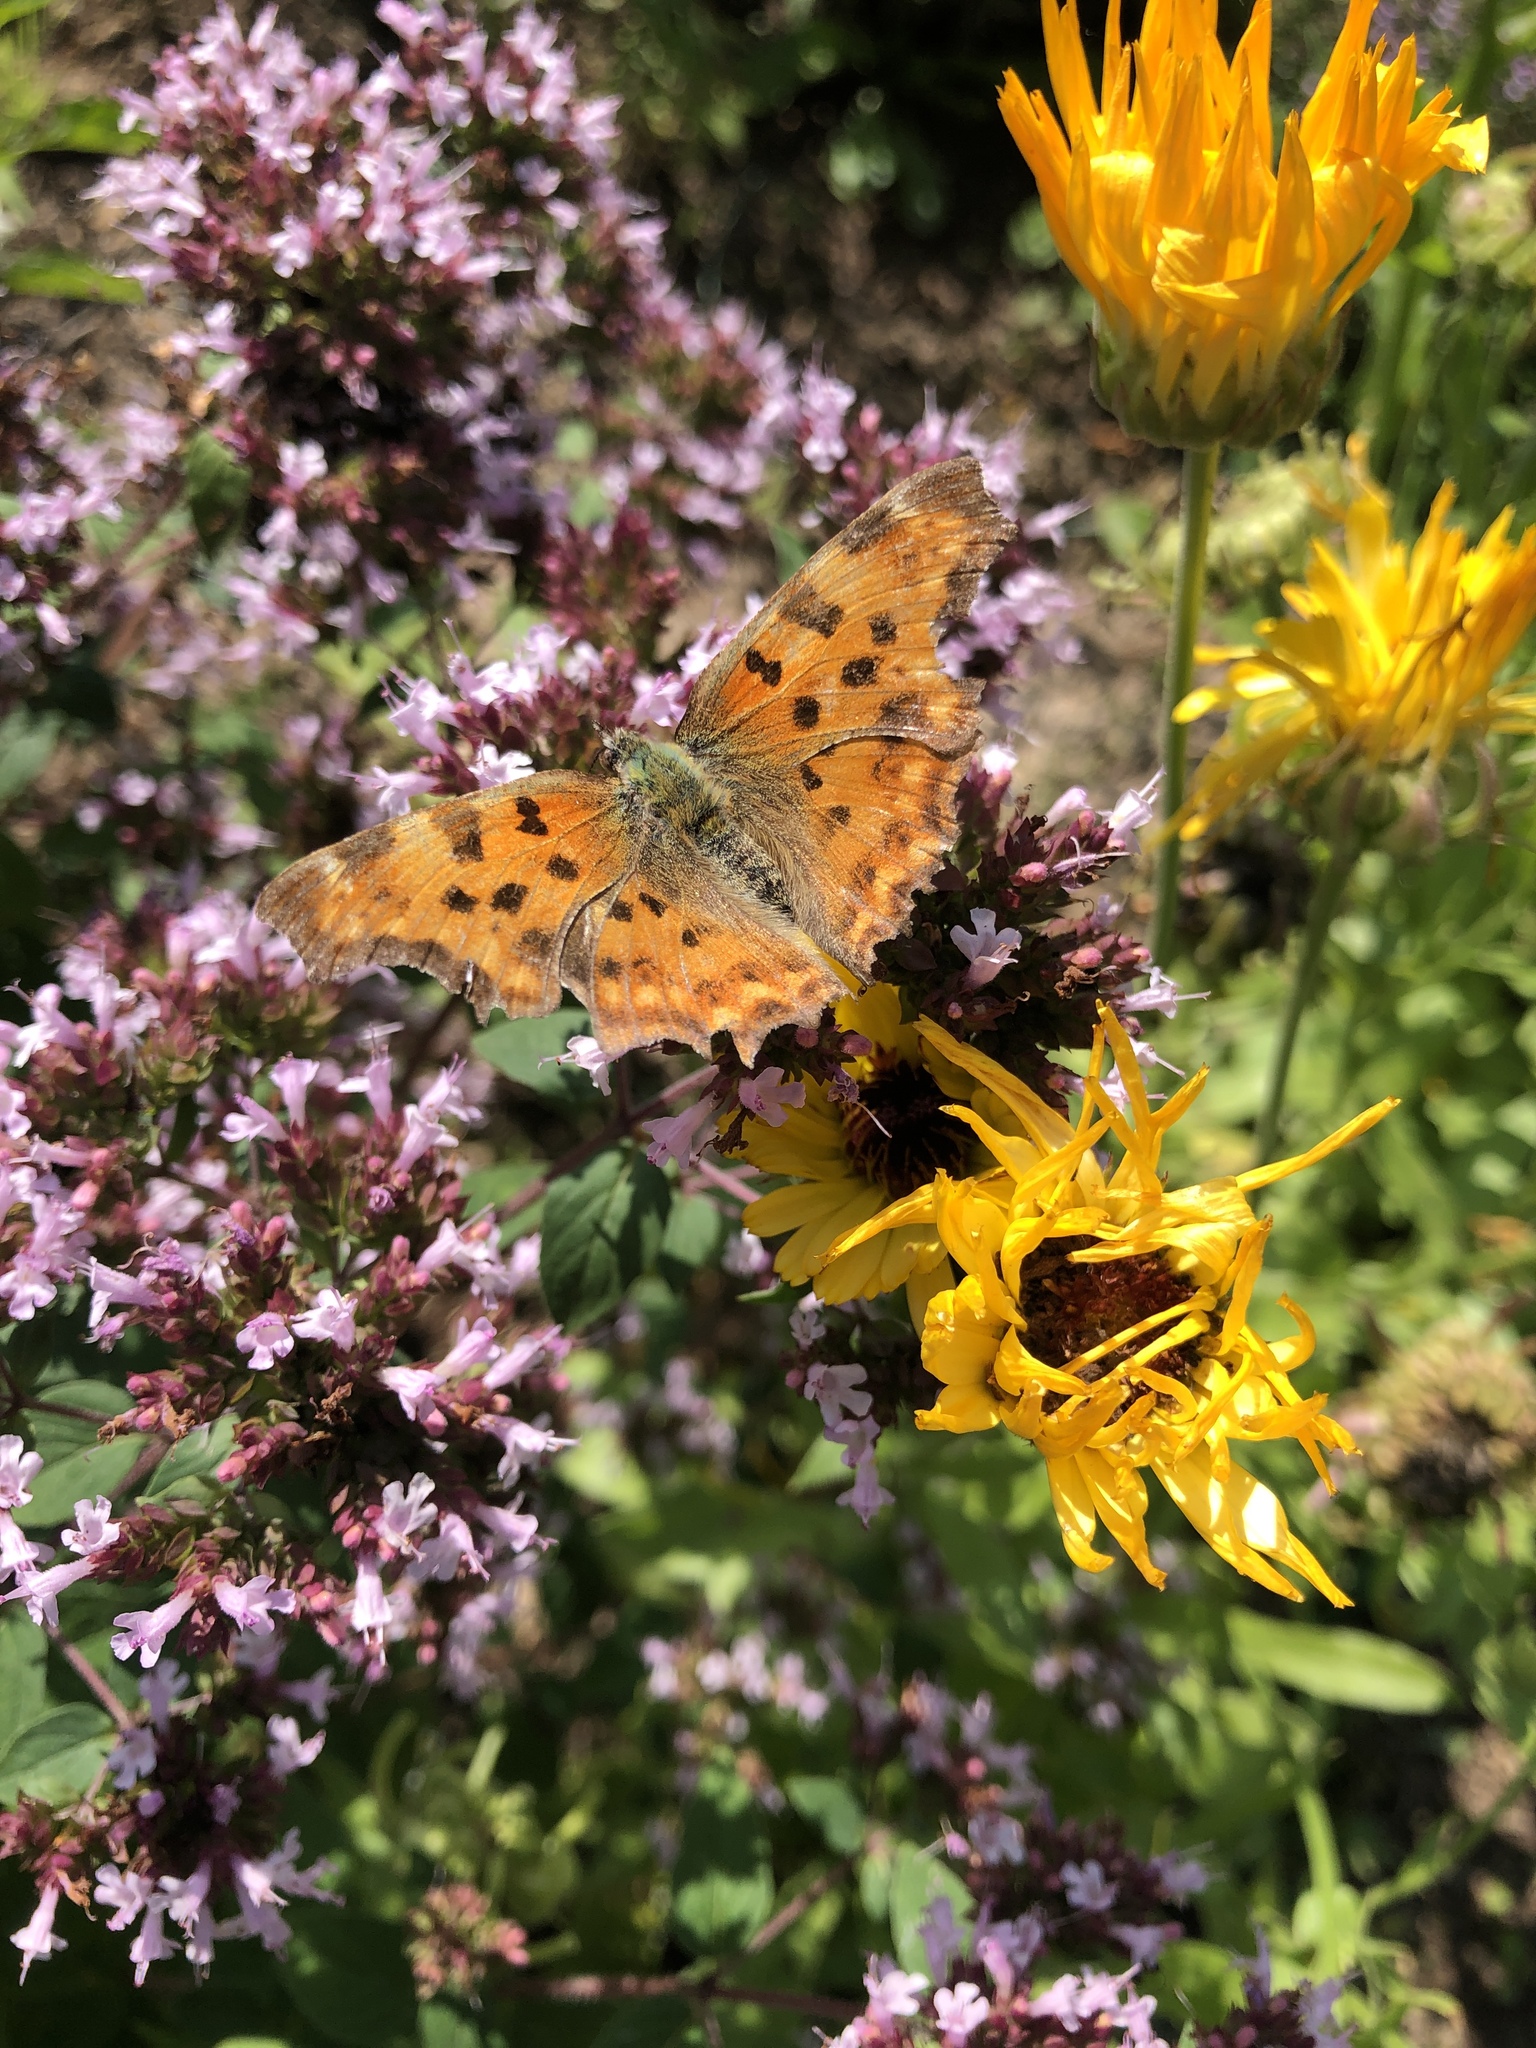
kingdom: Animalia
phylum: Arthropoda
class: Insecta
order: Lepidoptera
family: Nymphalidae
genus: Polygonia
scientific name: Polygonia c-album
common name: Comma
